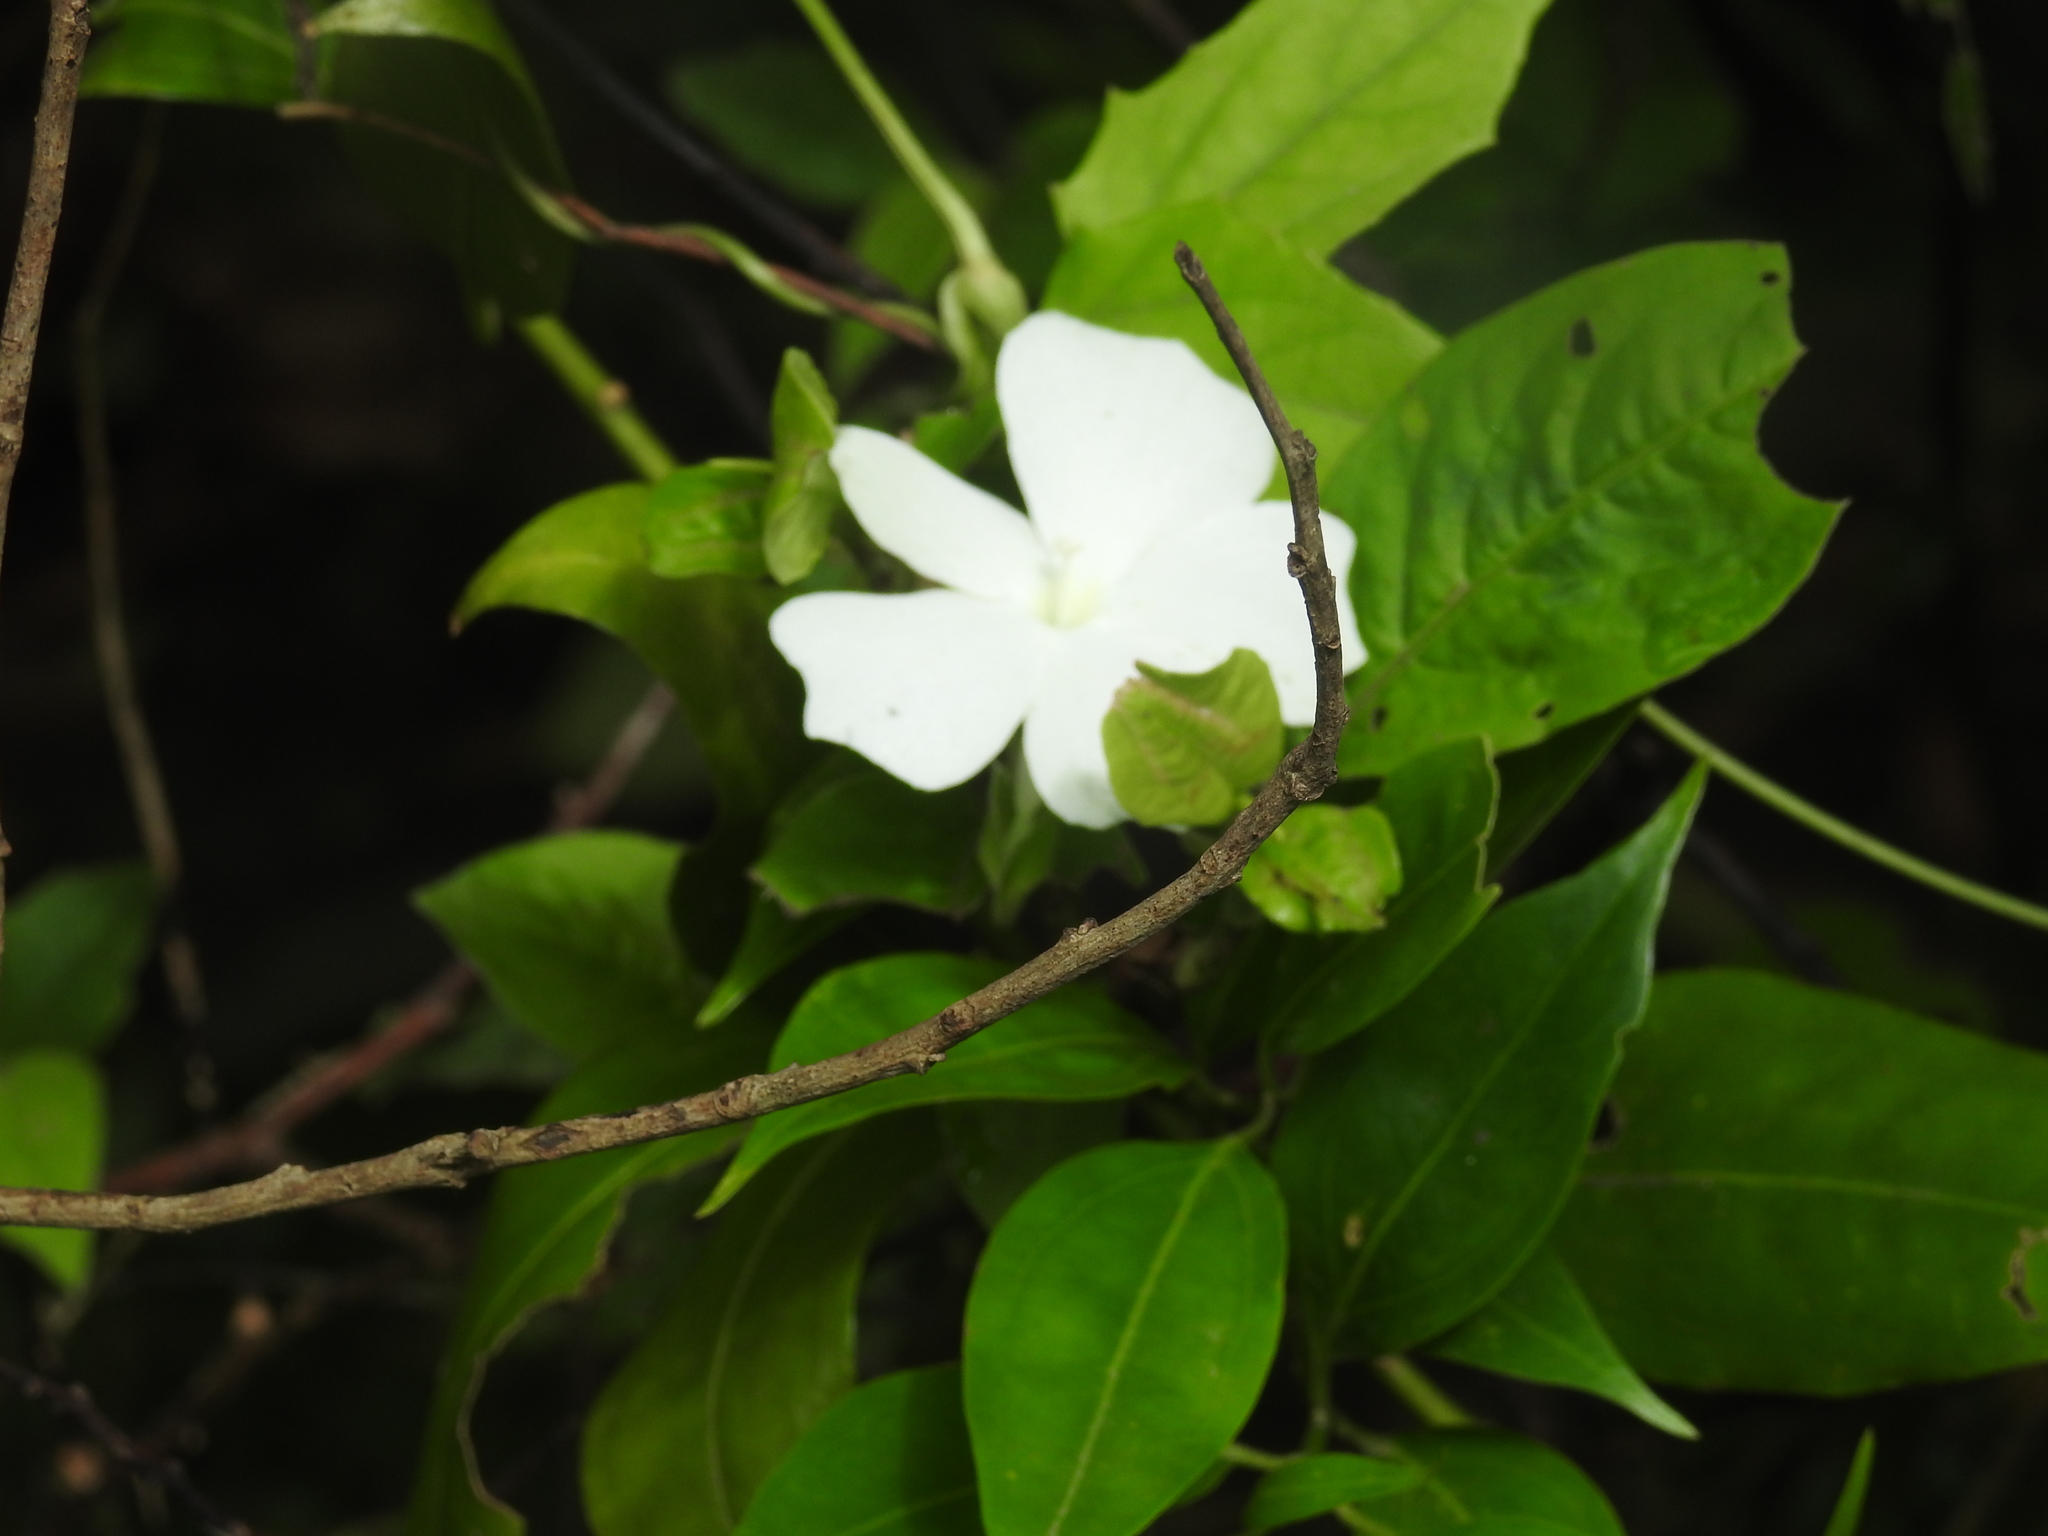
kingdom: Plantae
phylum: Tracheophyta
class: Magnoliopsida
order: Lamiales
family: Acanthaceae
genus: Thunbergia
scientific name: Thunbergia fragrans
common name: Whitelady
